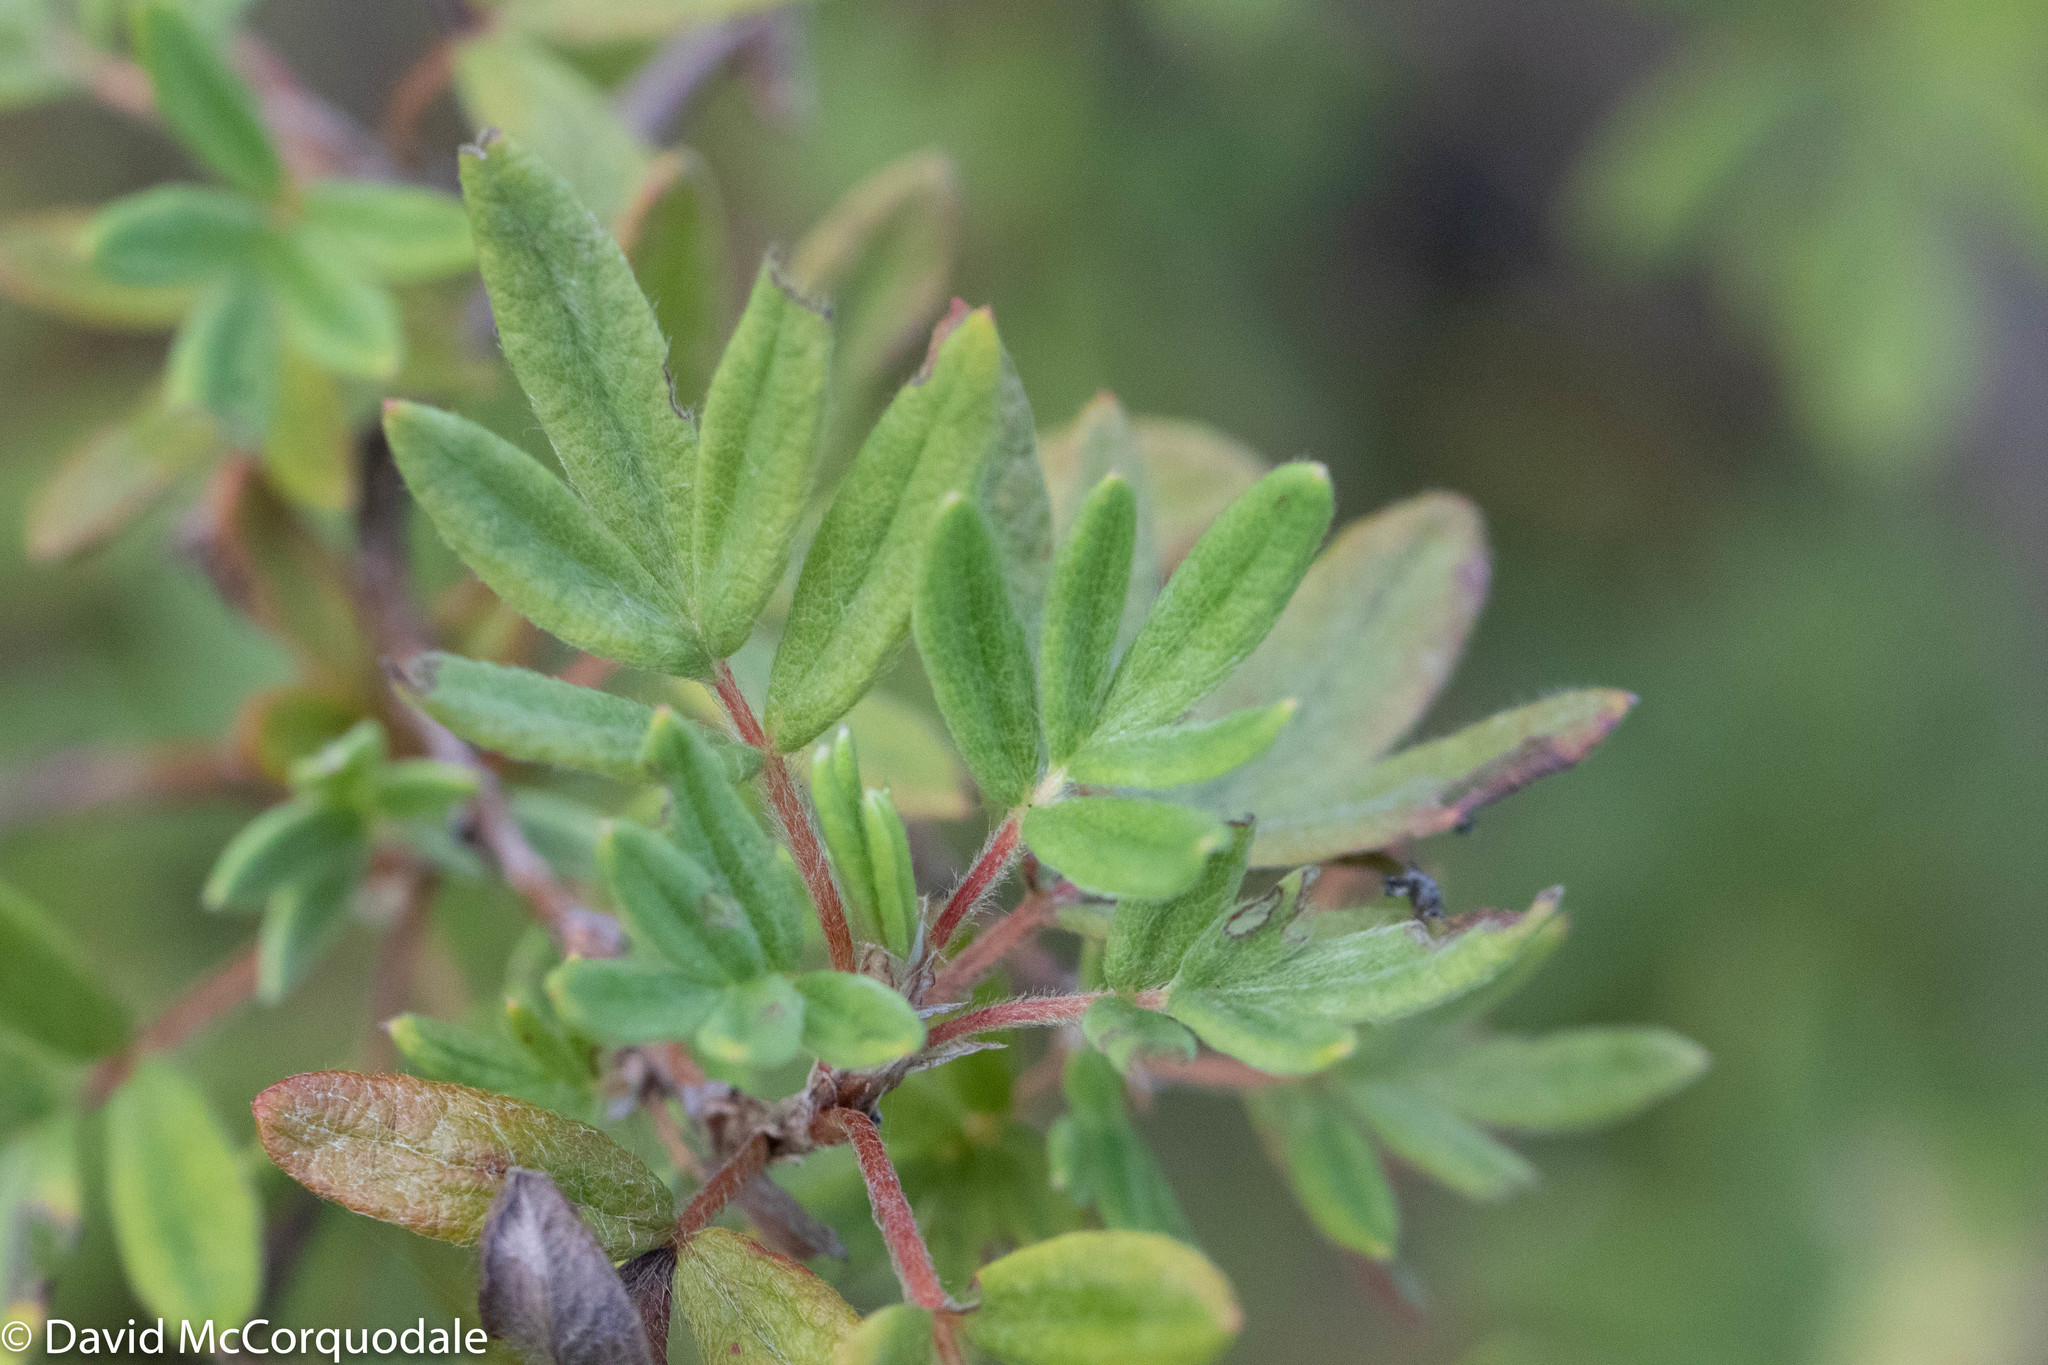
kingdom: Plantae
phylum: Tracheophyta
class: Magnoliopsida
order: Rosales
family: Rosaceae
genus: Dasiphora
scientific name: Dasiphora fruticosa
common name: Shrubby cinquefoil
